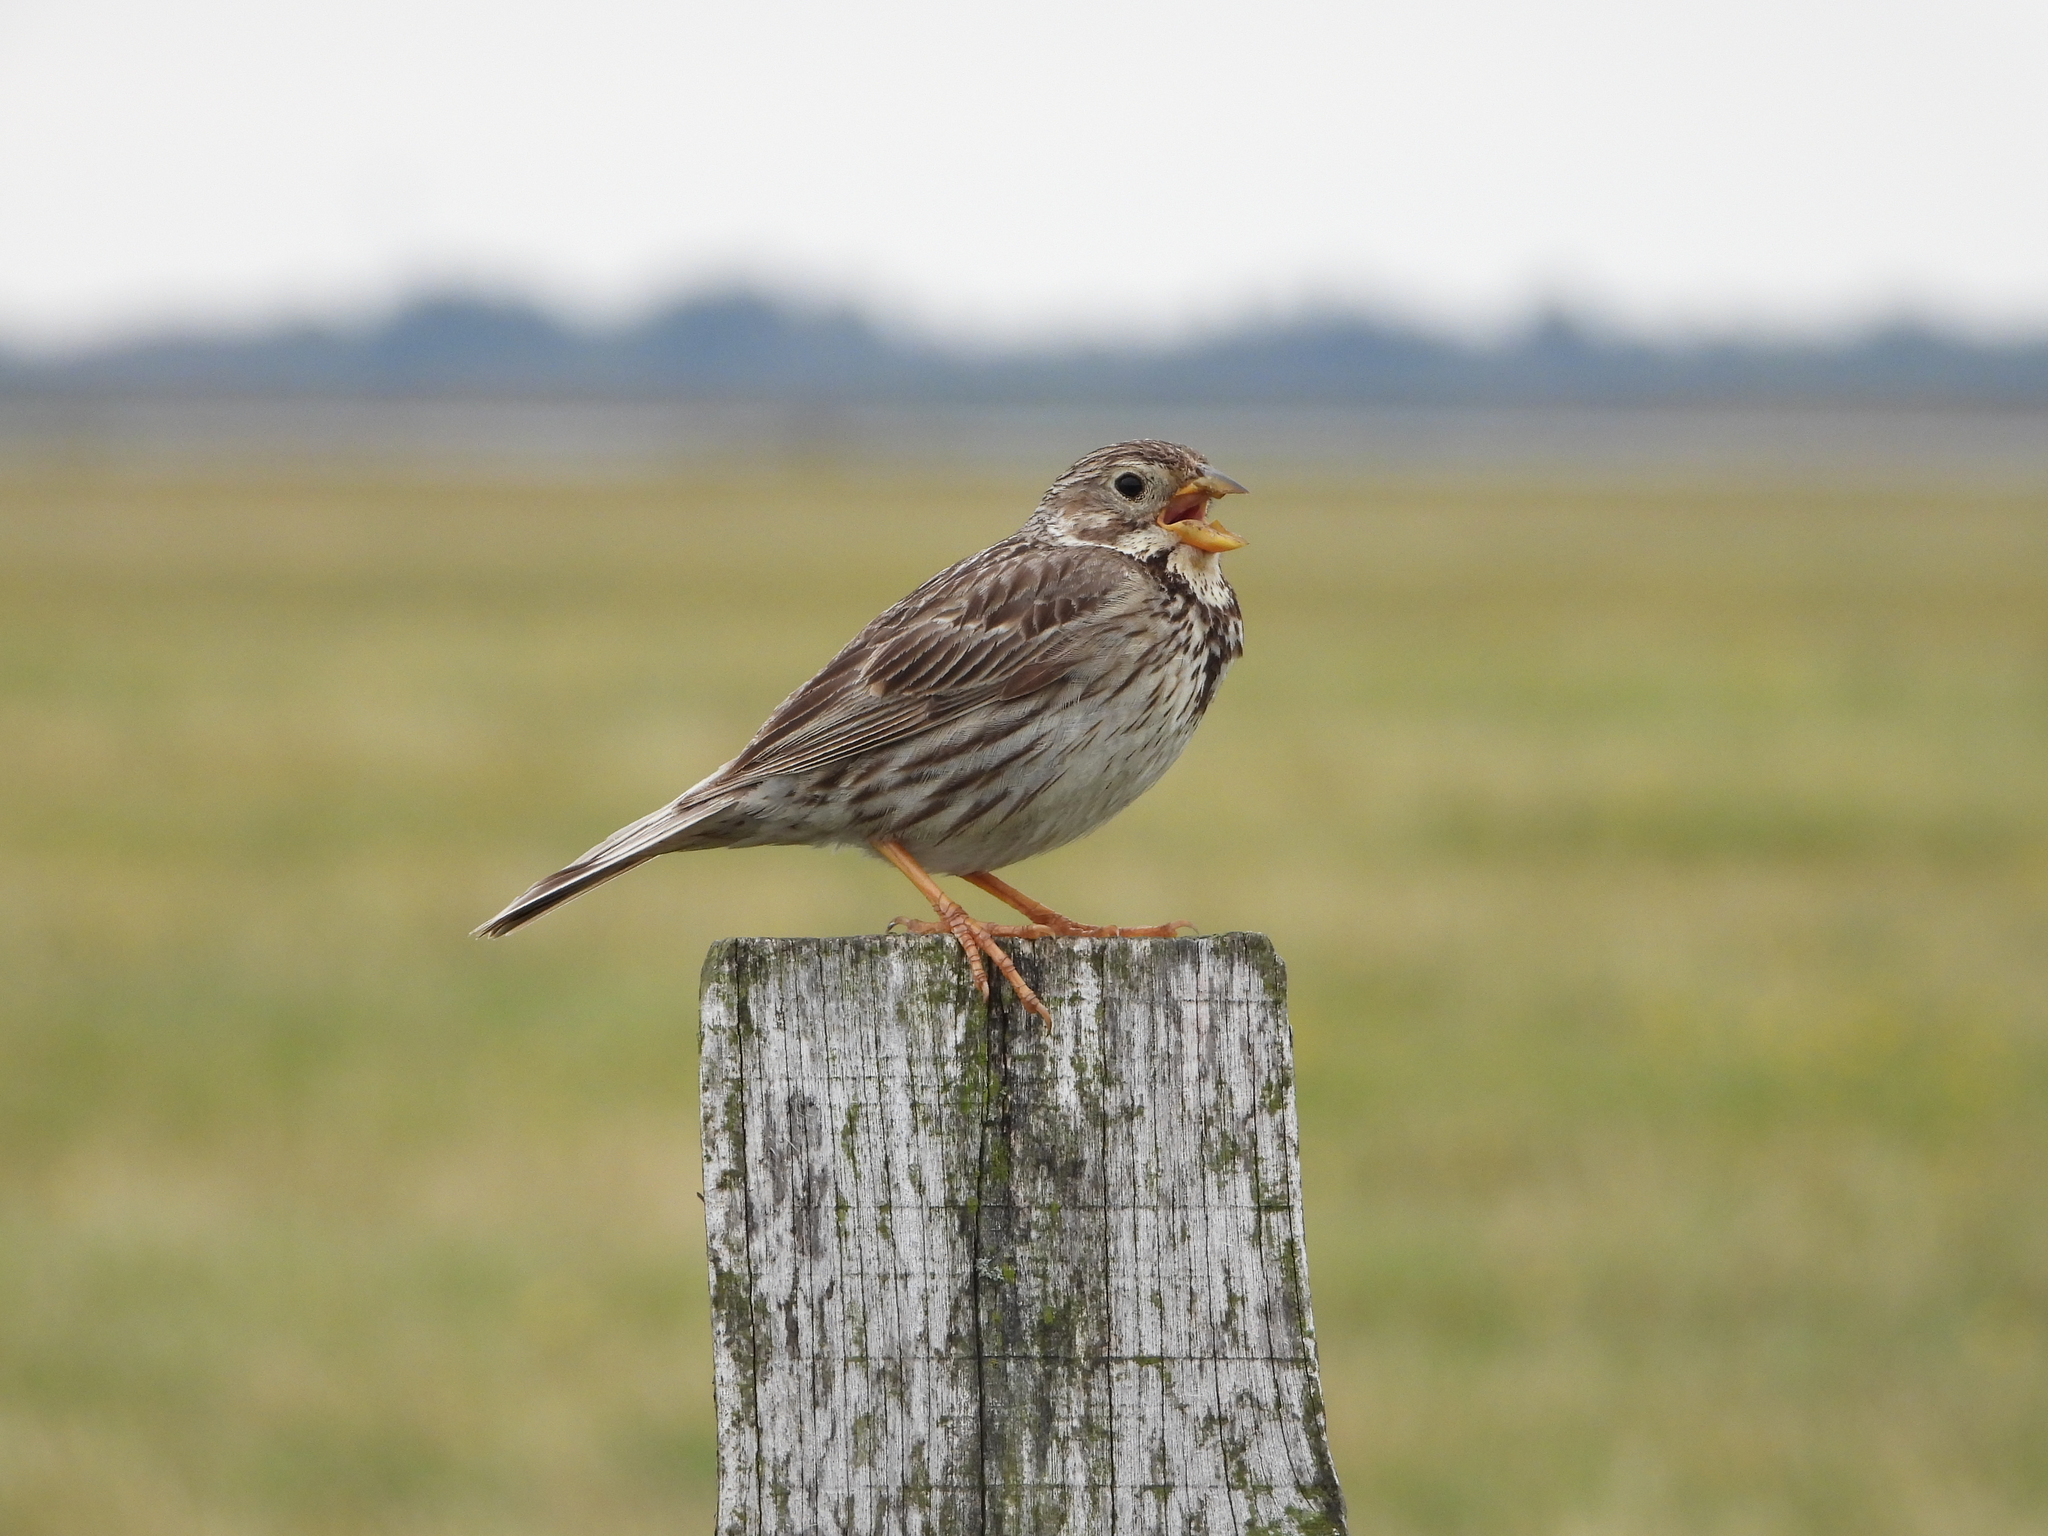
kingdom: Animalia
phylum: Chordata
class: Aves
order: Passeriformes
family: Emberizidae
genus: Emberiza
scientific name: Emberiza calandra
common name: Corn bunting
